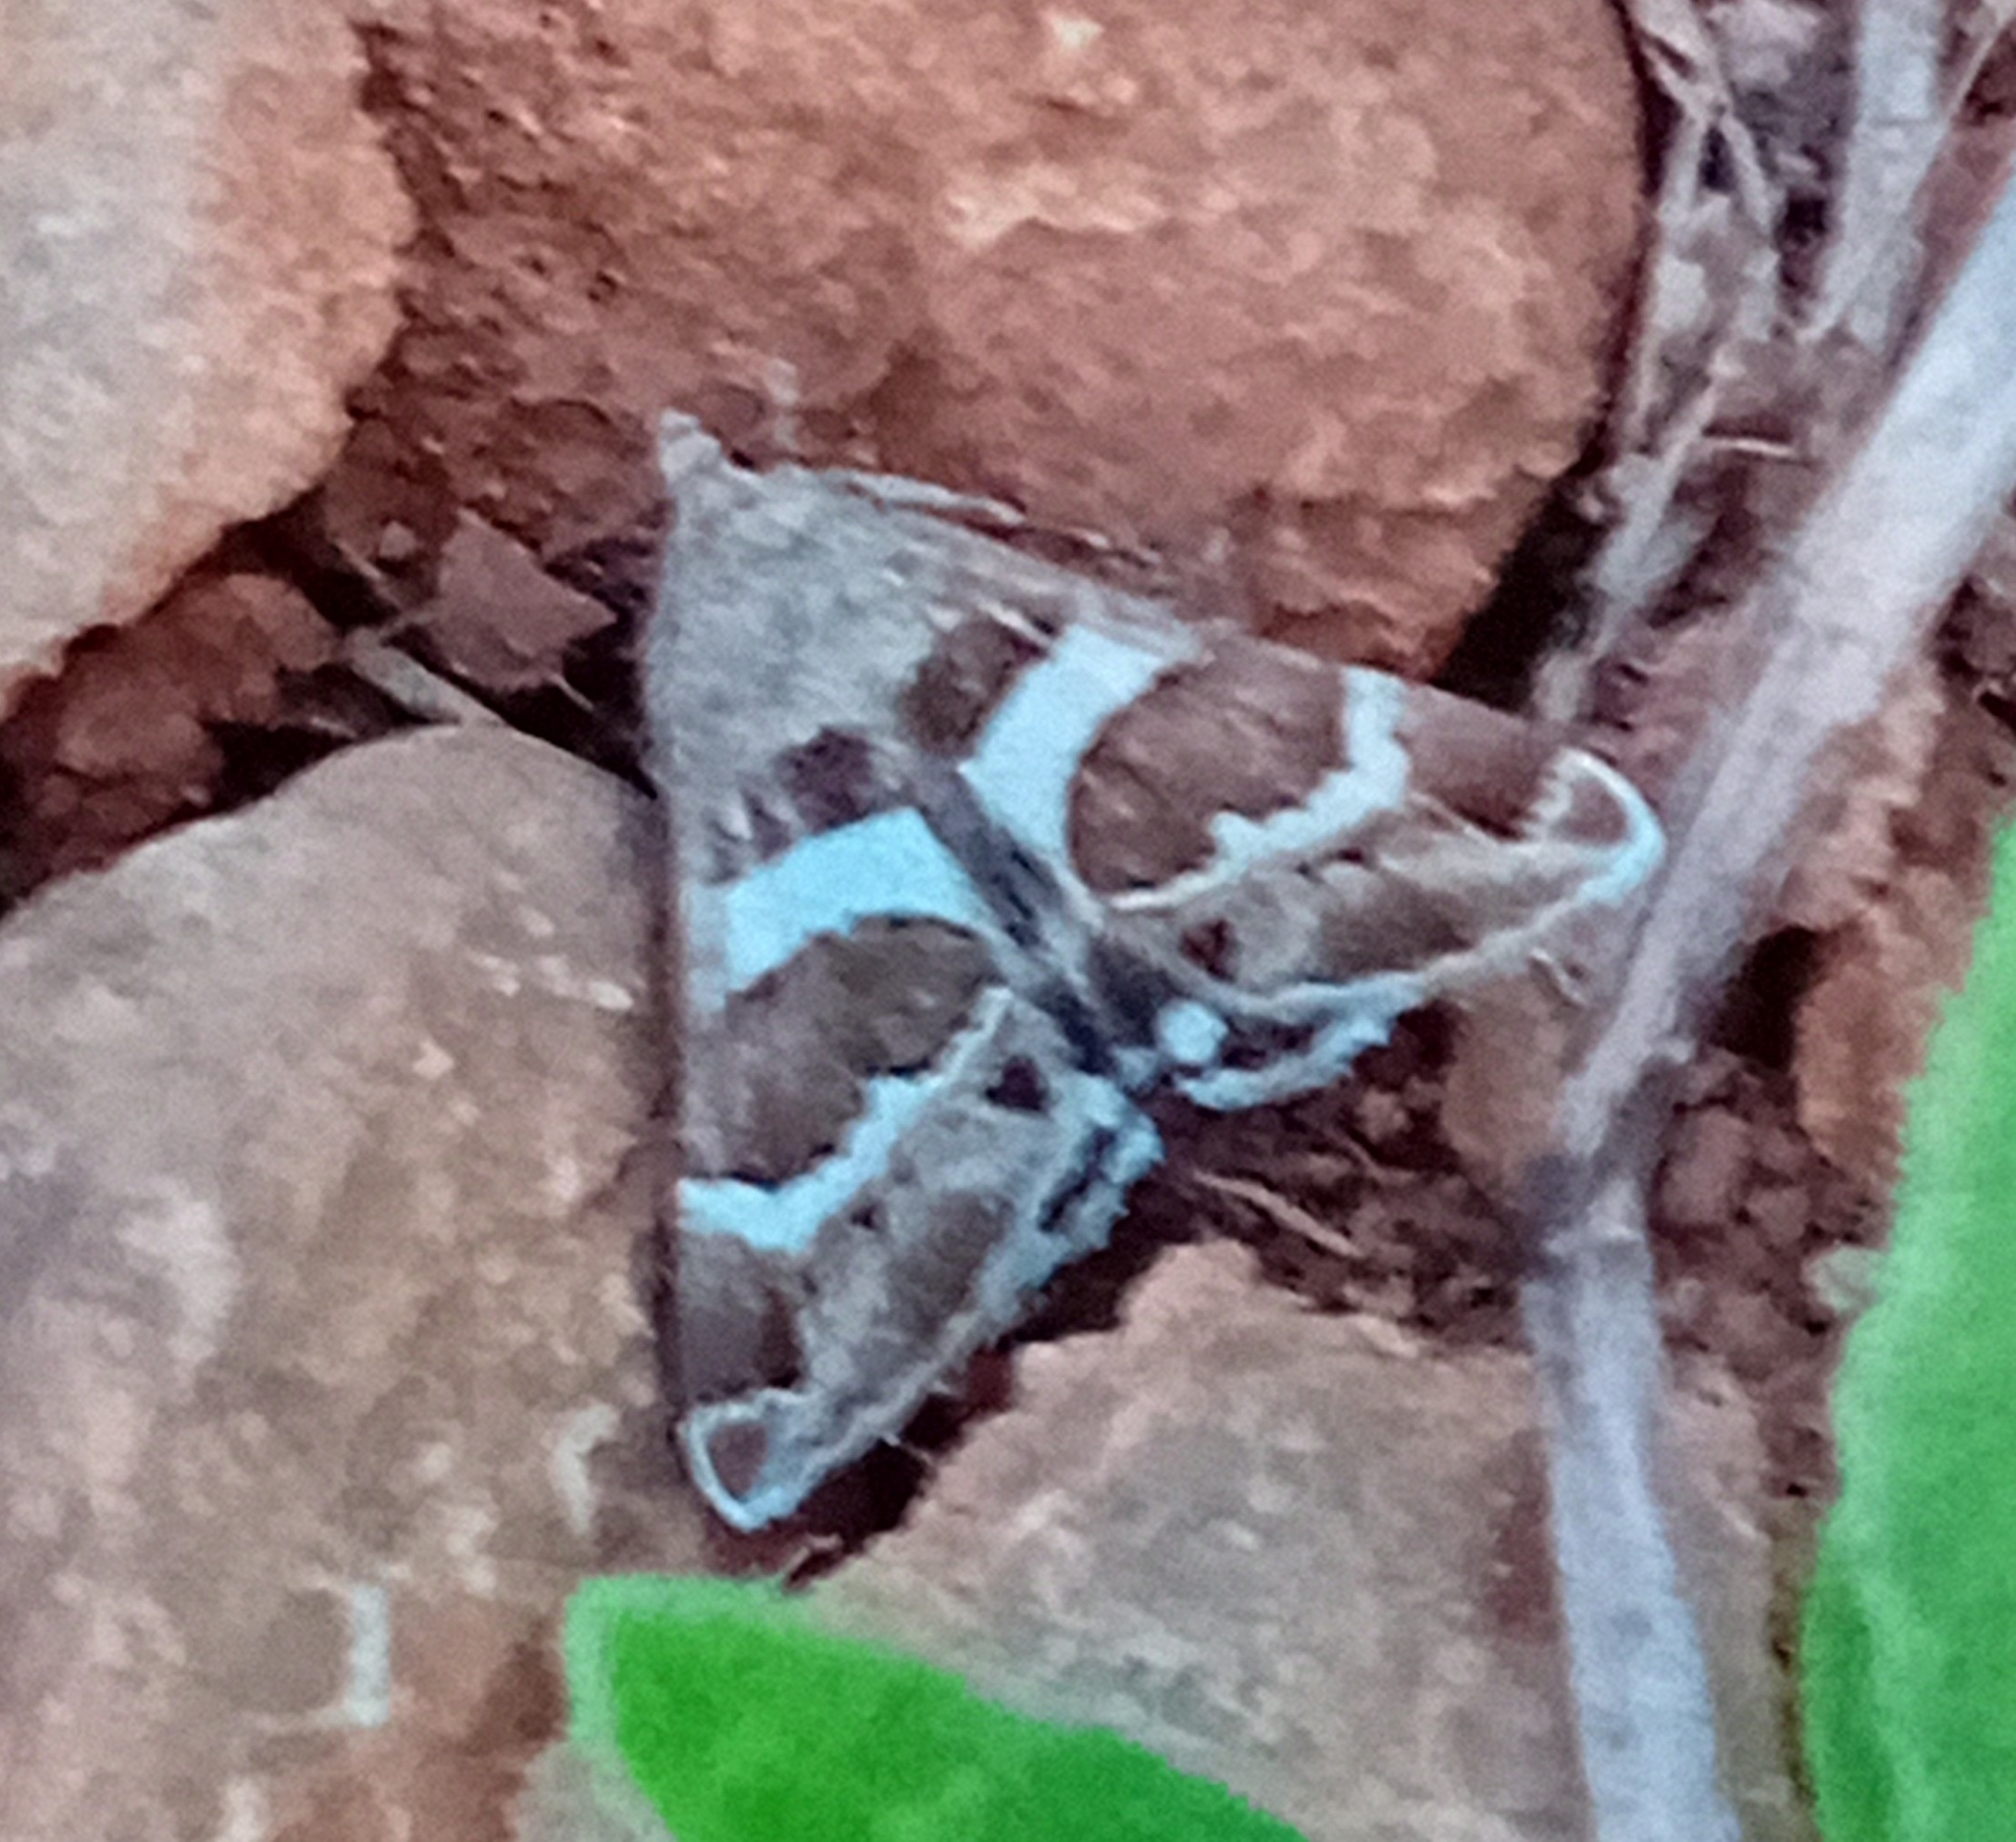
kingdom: Animalia
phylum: Arthropoda
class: Insecta
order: Lepidoptera
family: Erebidae
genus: Grammodes
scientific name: Grammodes stolida
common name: Geometrician
